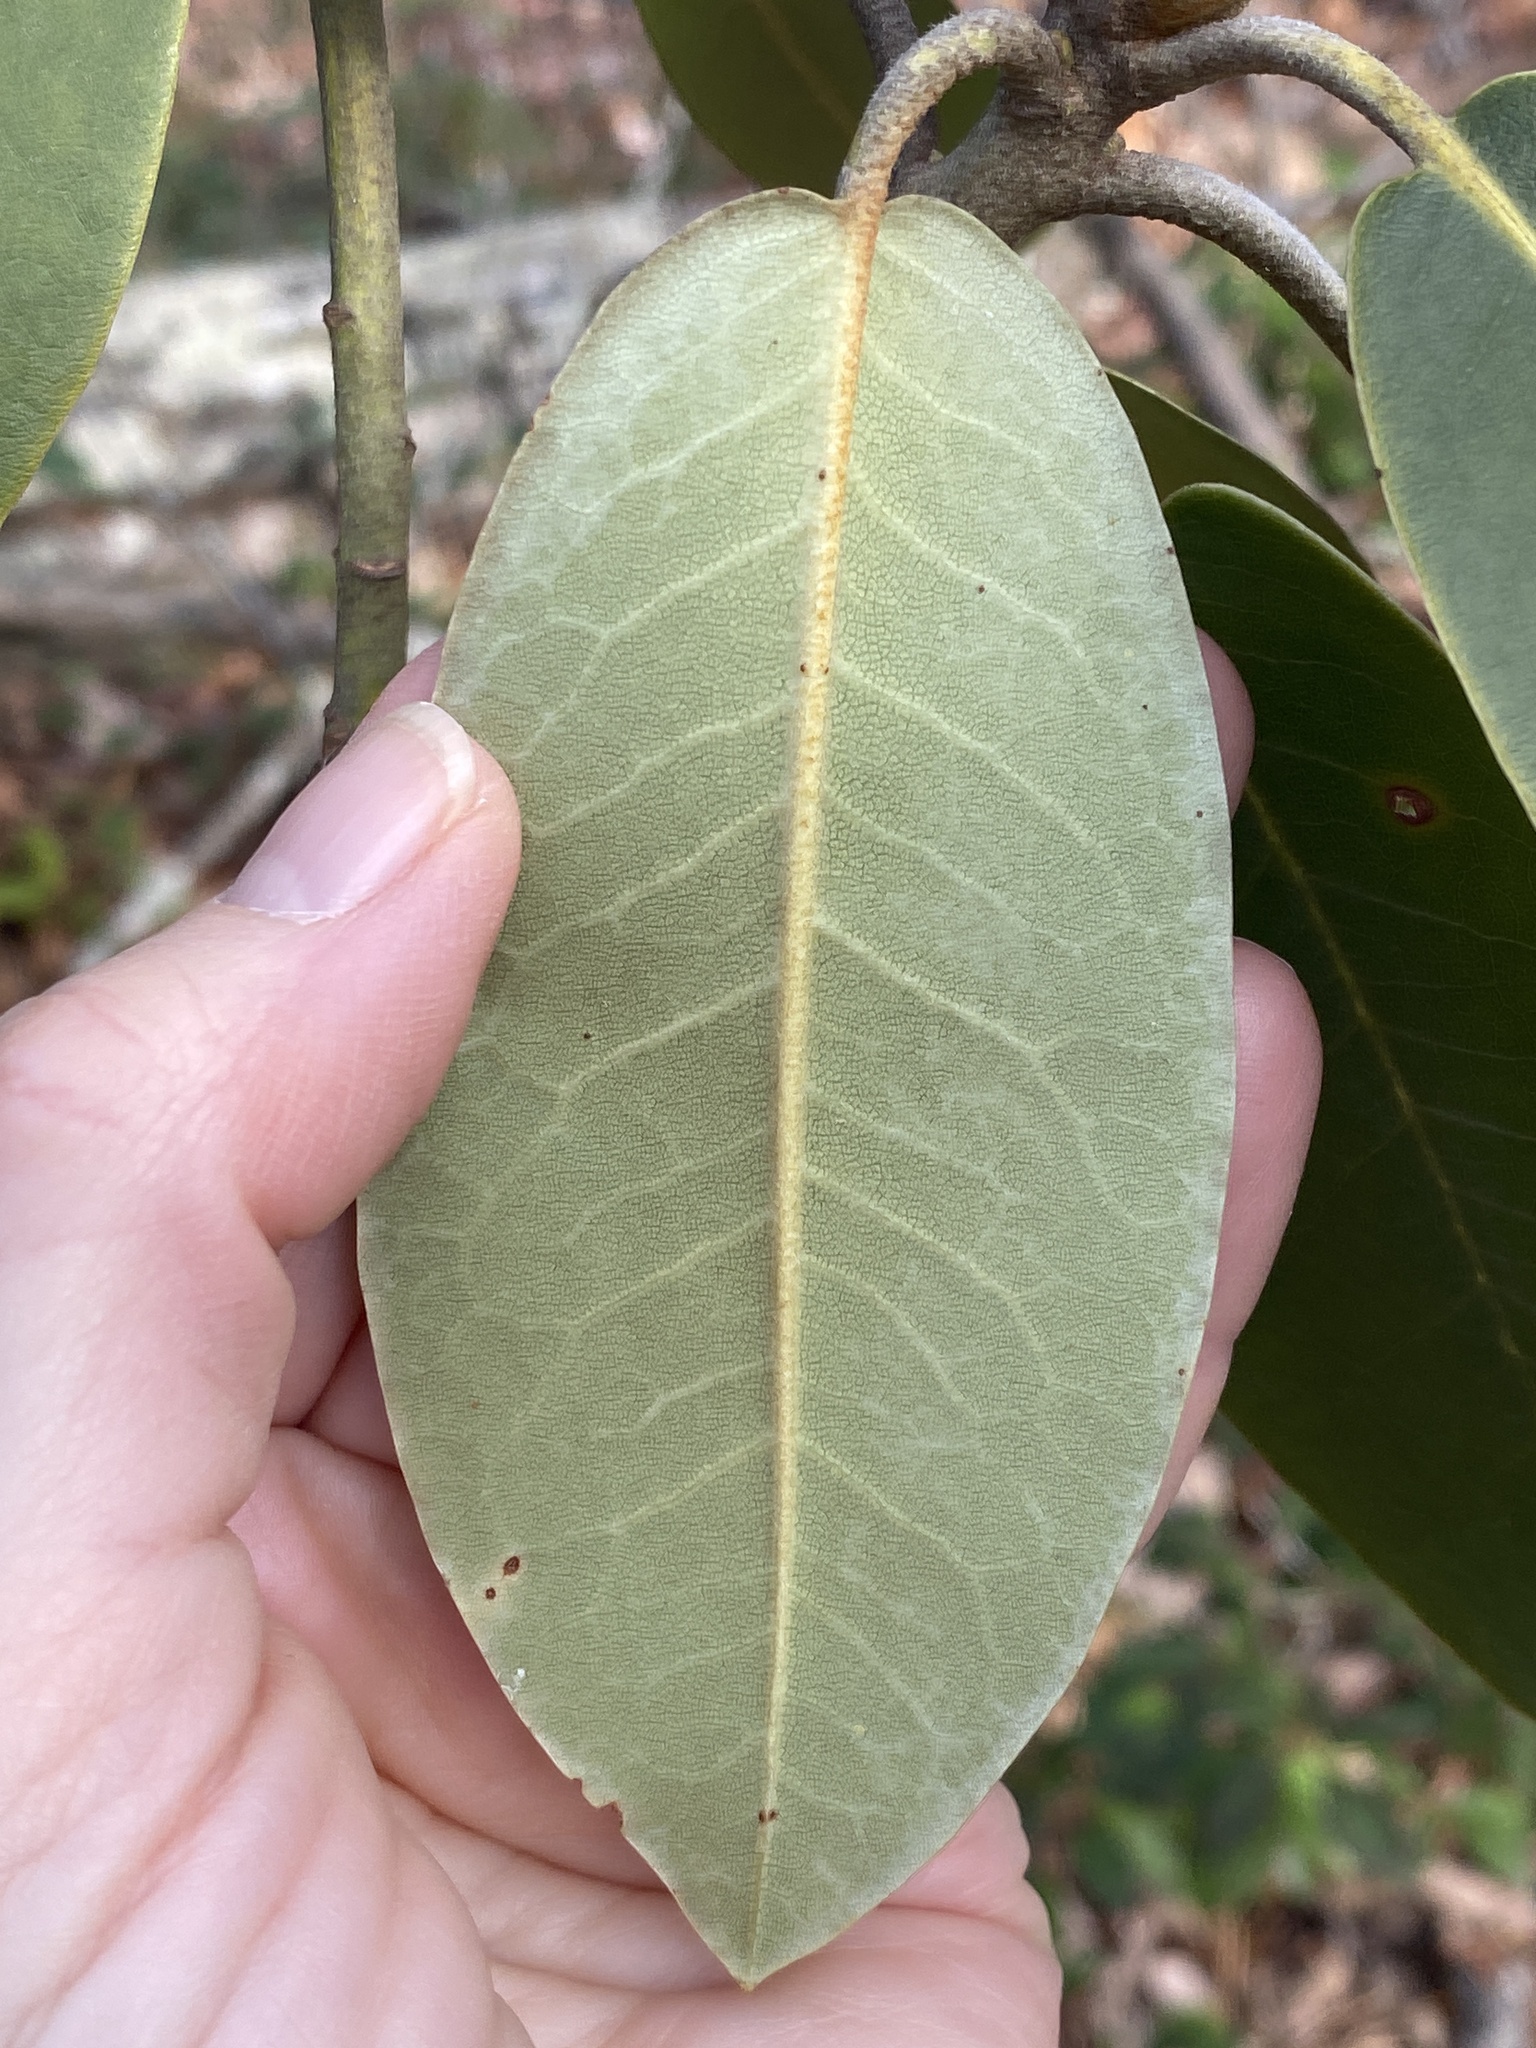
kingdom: Plantae
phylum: Tracheophyta
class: Magnoliopsida
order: Ericales
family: Ericaceae
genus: Rhododendron
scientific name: Rhododendron catawbiense
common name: Catawba rhododendron
